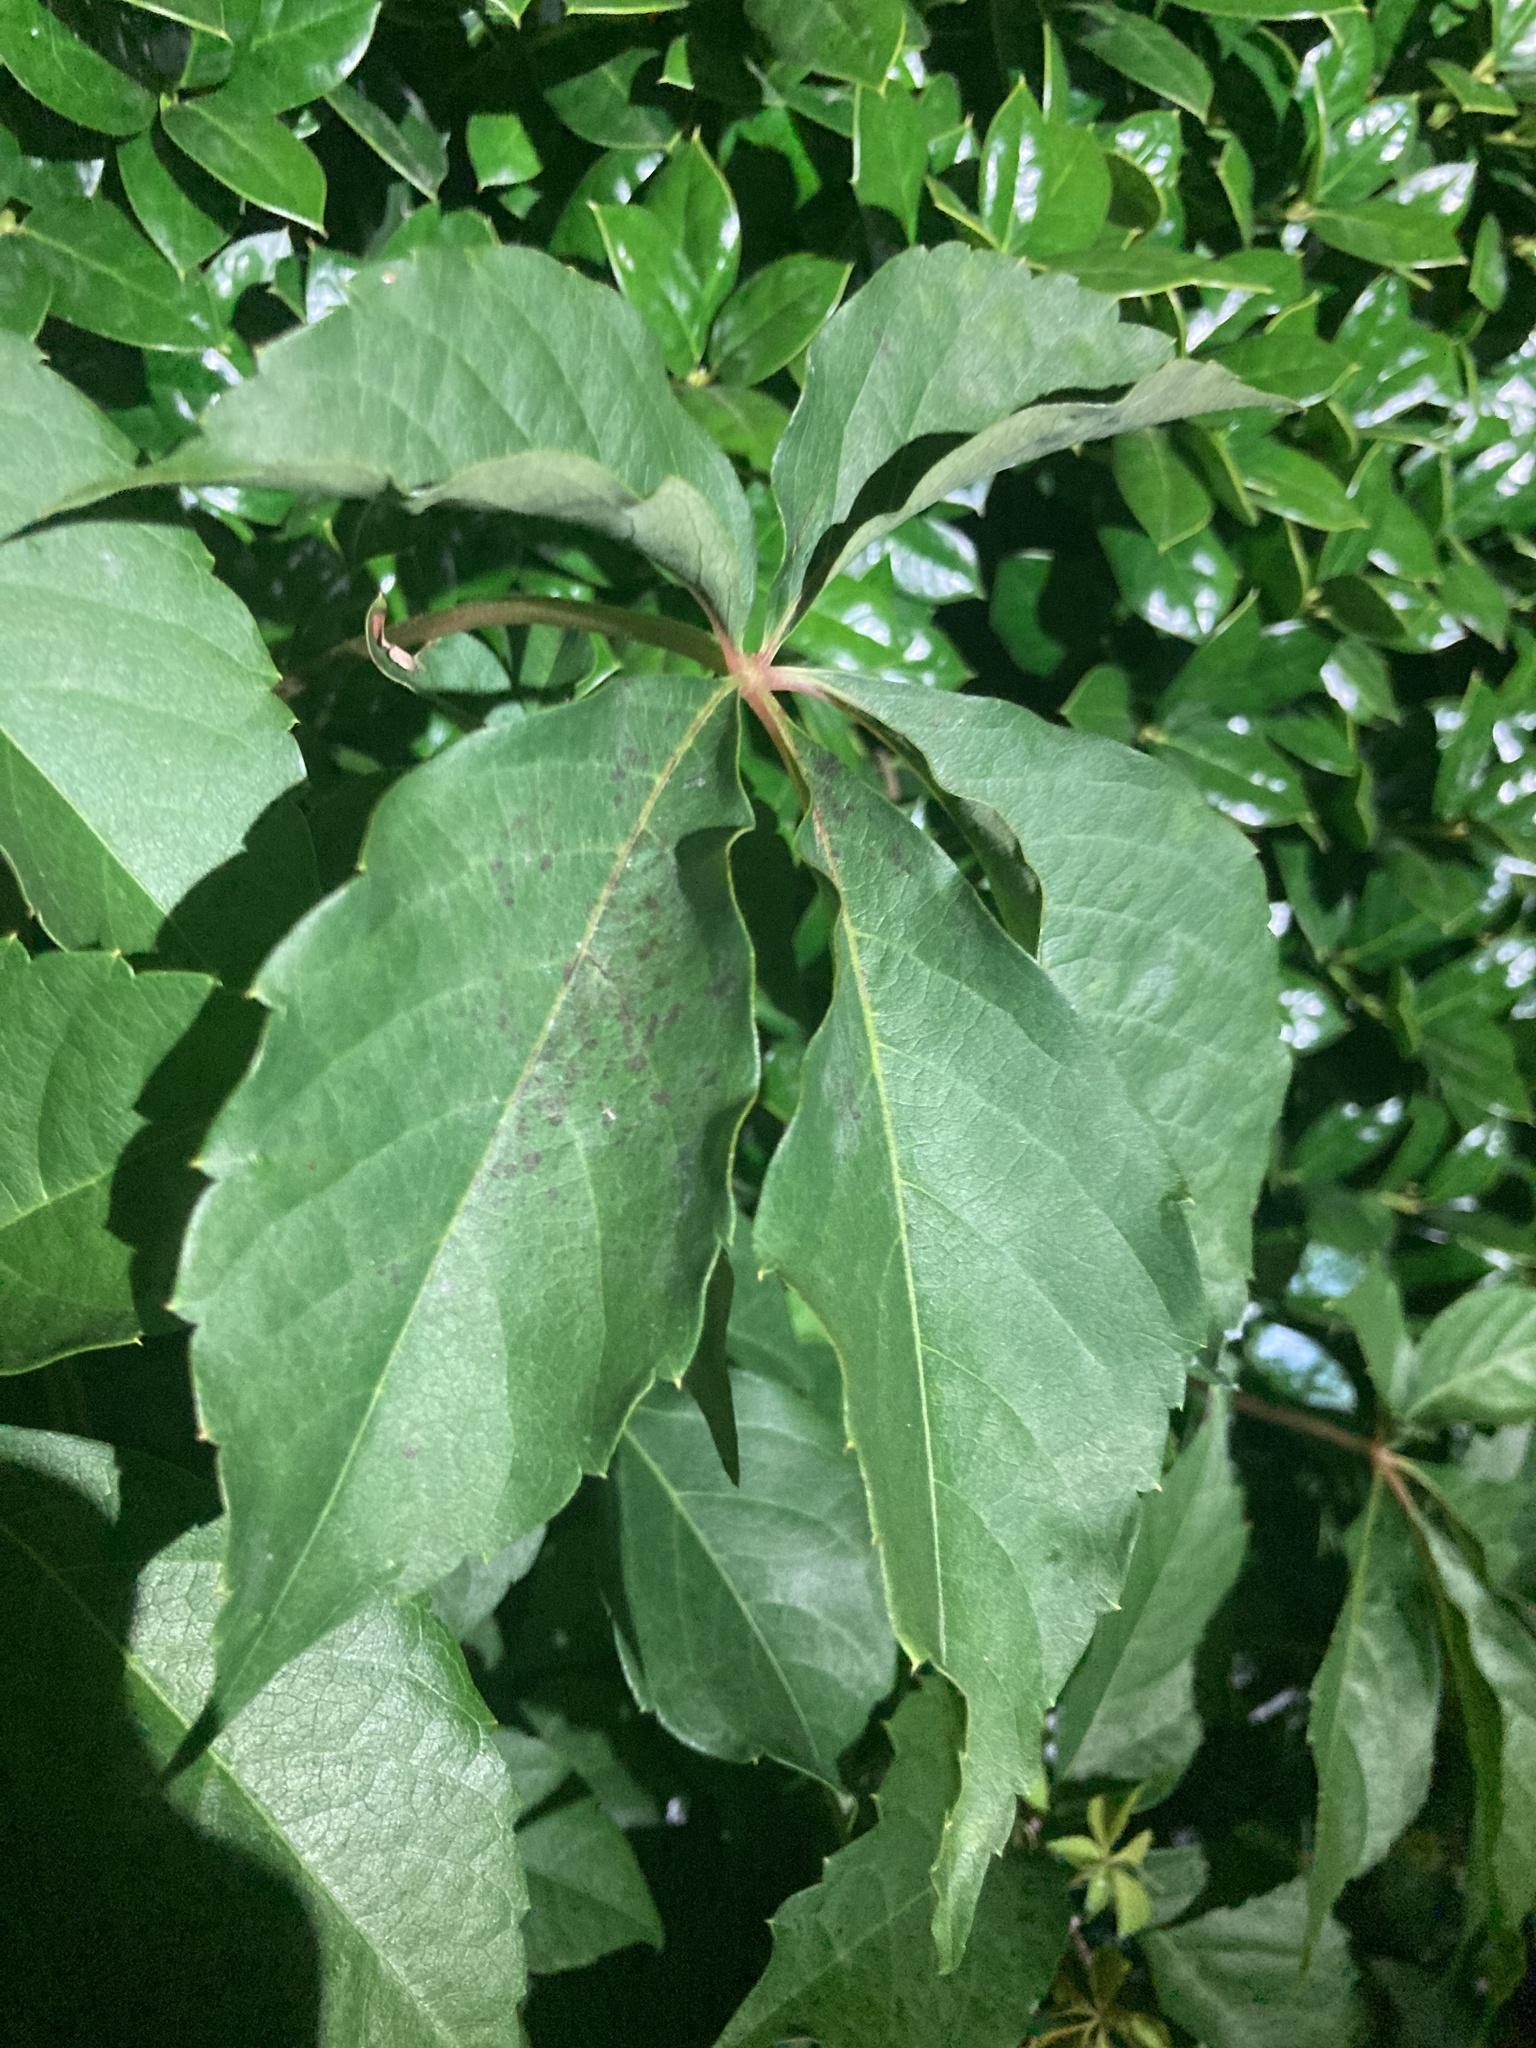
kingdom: Plantae
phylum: Tracheophyta
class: Magnoliopsida
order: Vitales
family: Vitaceae
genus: Parthenocissus
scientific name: Parthenocissus quinquefolia
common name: Virginia-creeper
